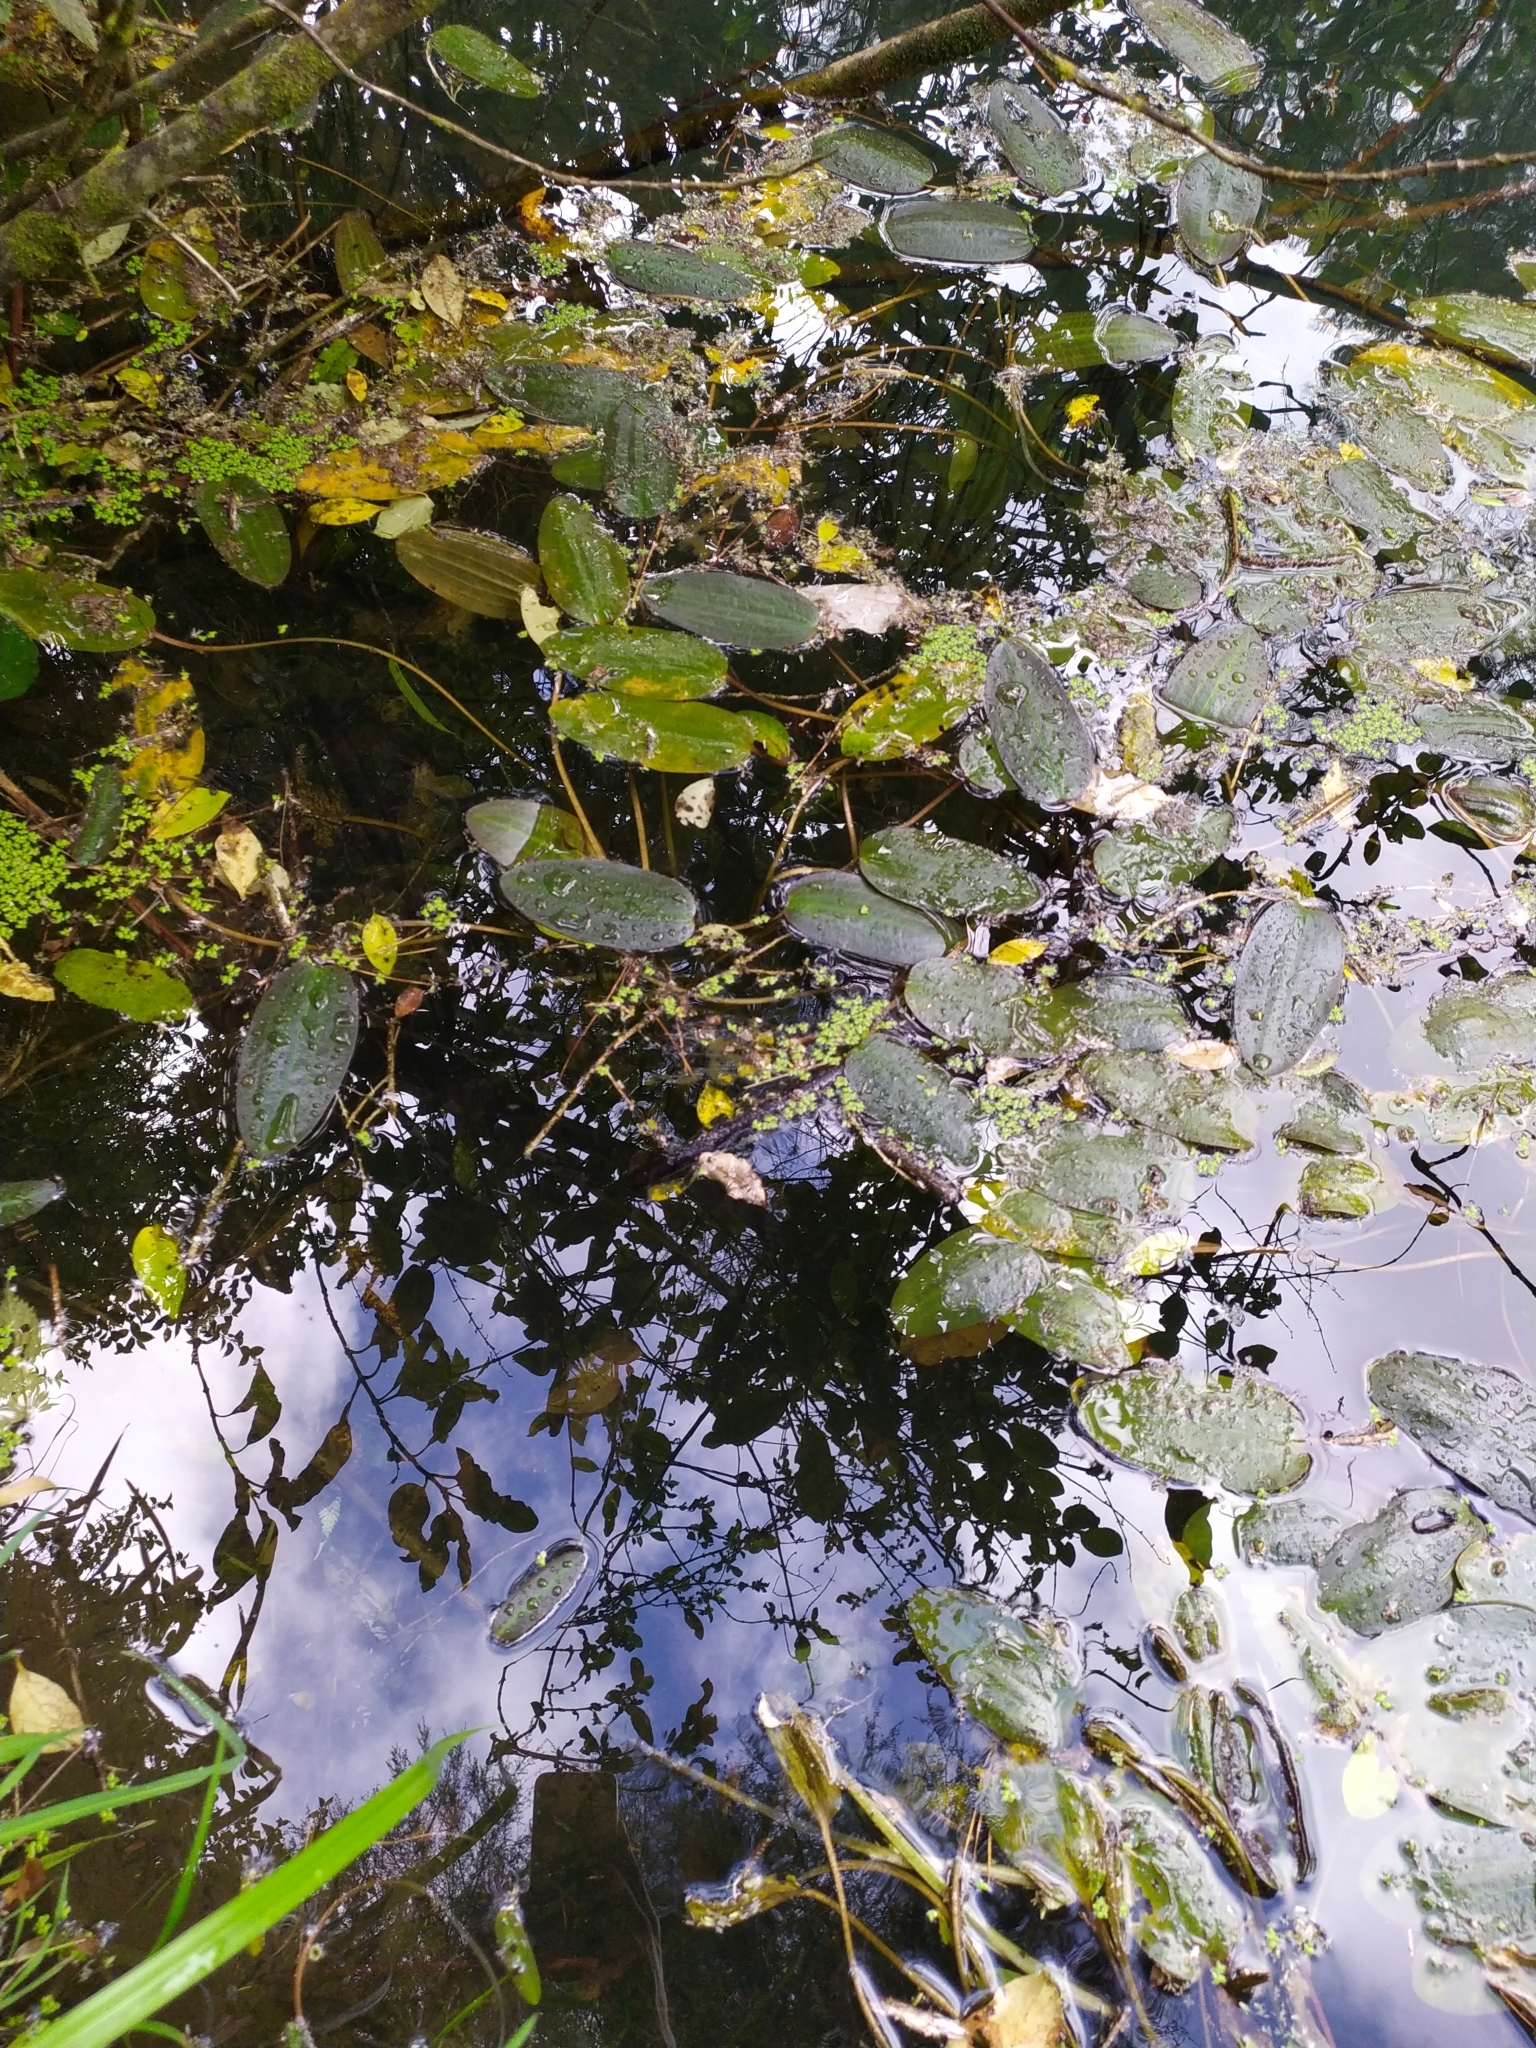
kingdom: Plantae
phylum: Tracheophyta
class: Liliopsida
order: Alismatales
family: Hydrocharitaceae
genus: Ottelia
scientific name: Ottelia ovalifolia
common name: Swamp-lily
